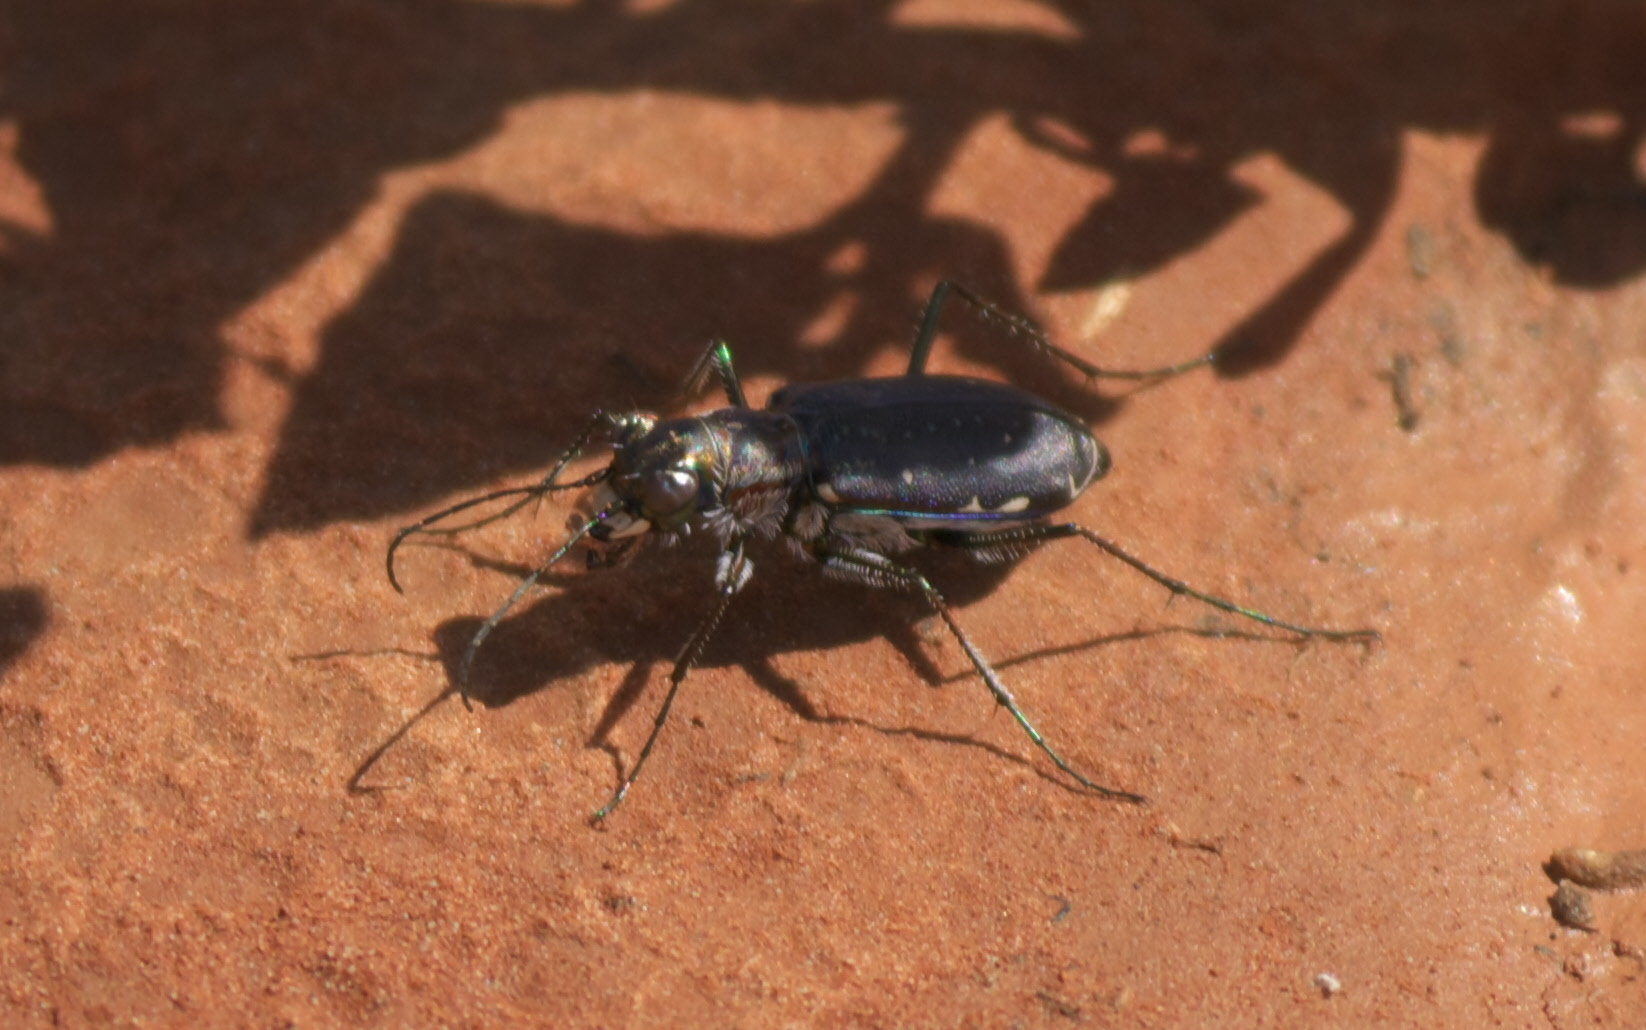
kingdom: Animalia
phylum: Arthropoda
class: Insecta
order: Coleoptera
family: Carabidae
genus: Cicindela
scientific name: Cicindela punctulata
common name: Punctured tiger beetle
